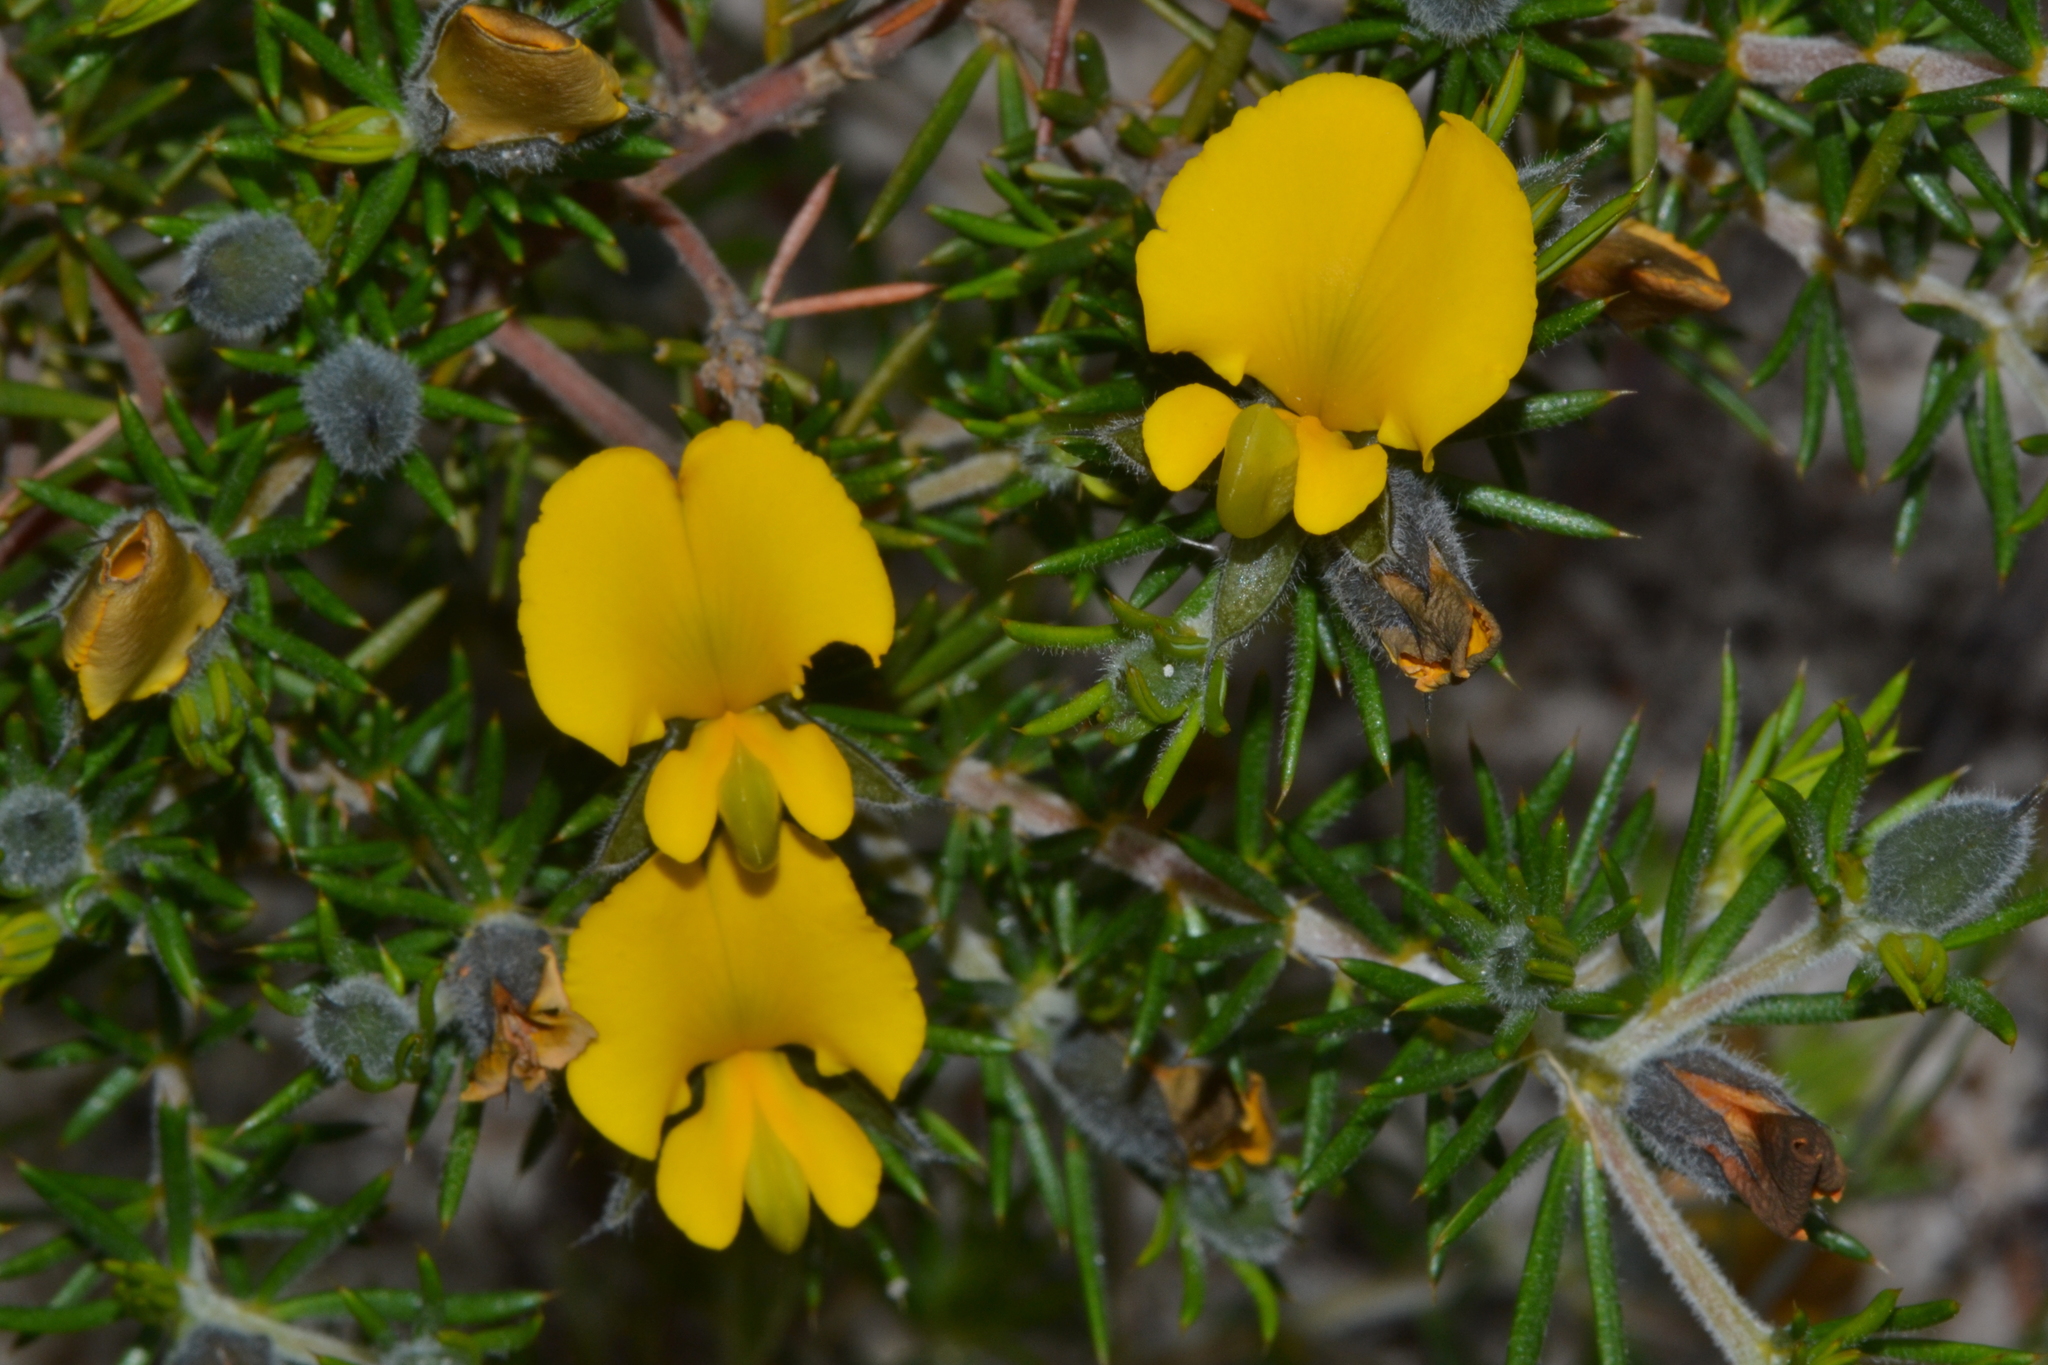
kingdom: Plantae
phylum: Tracheophyta
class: Magnoliopsida
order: Fabales
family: Fabaceae
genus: Gompholobium
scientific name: Gompholobium aristatum
